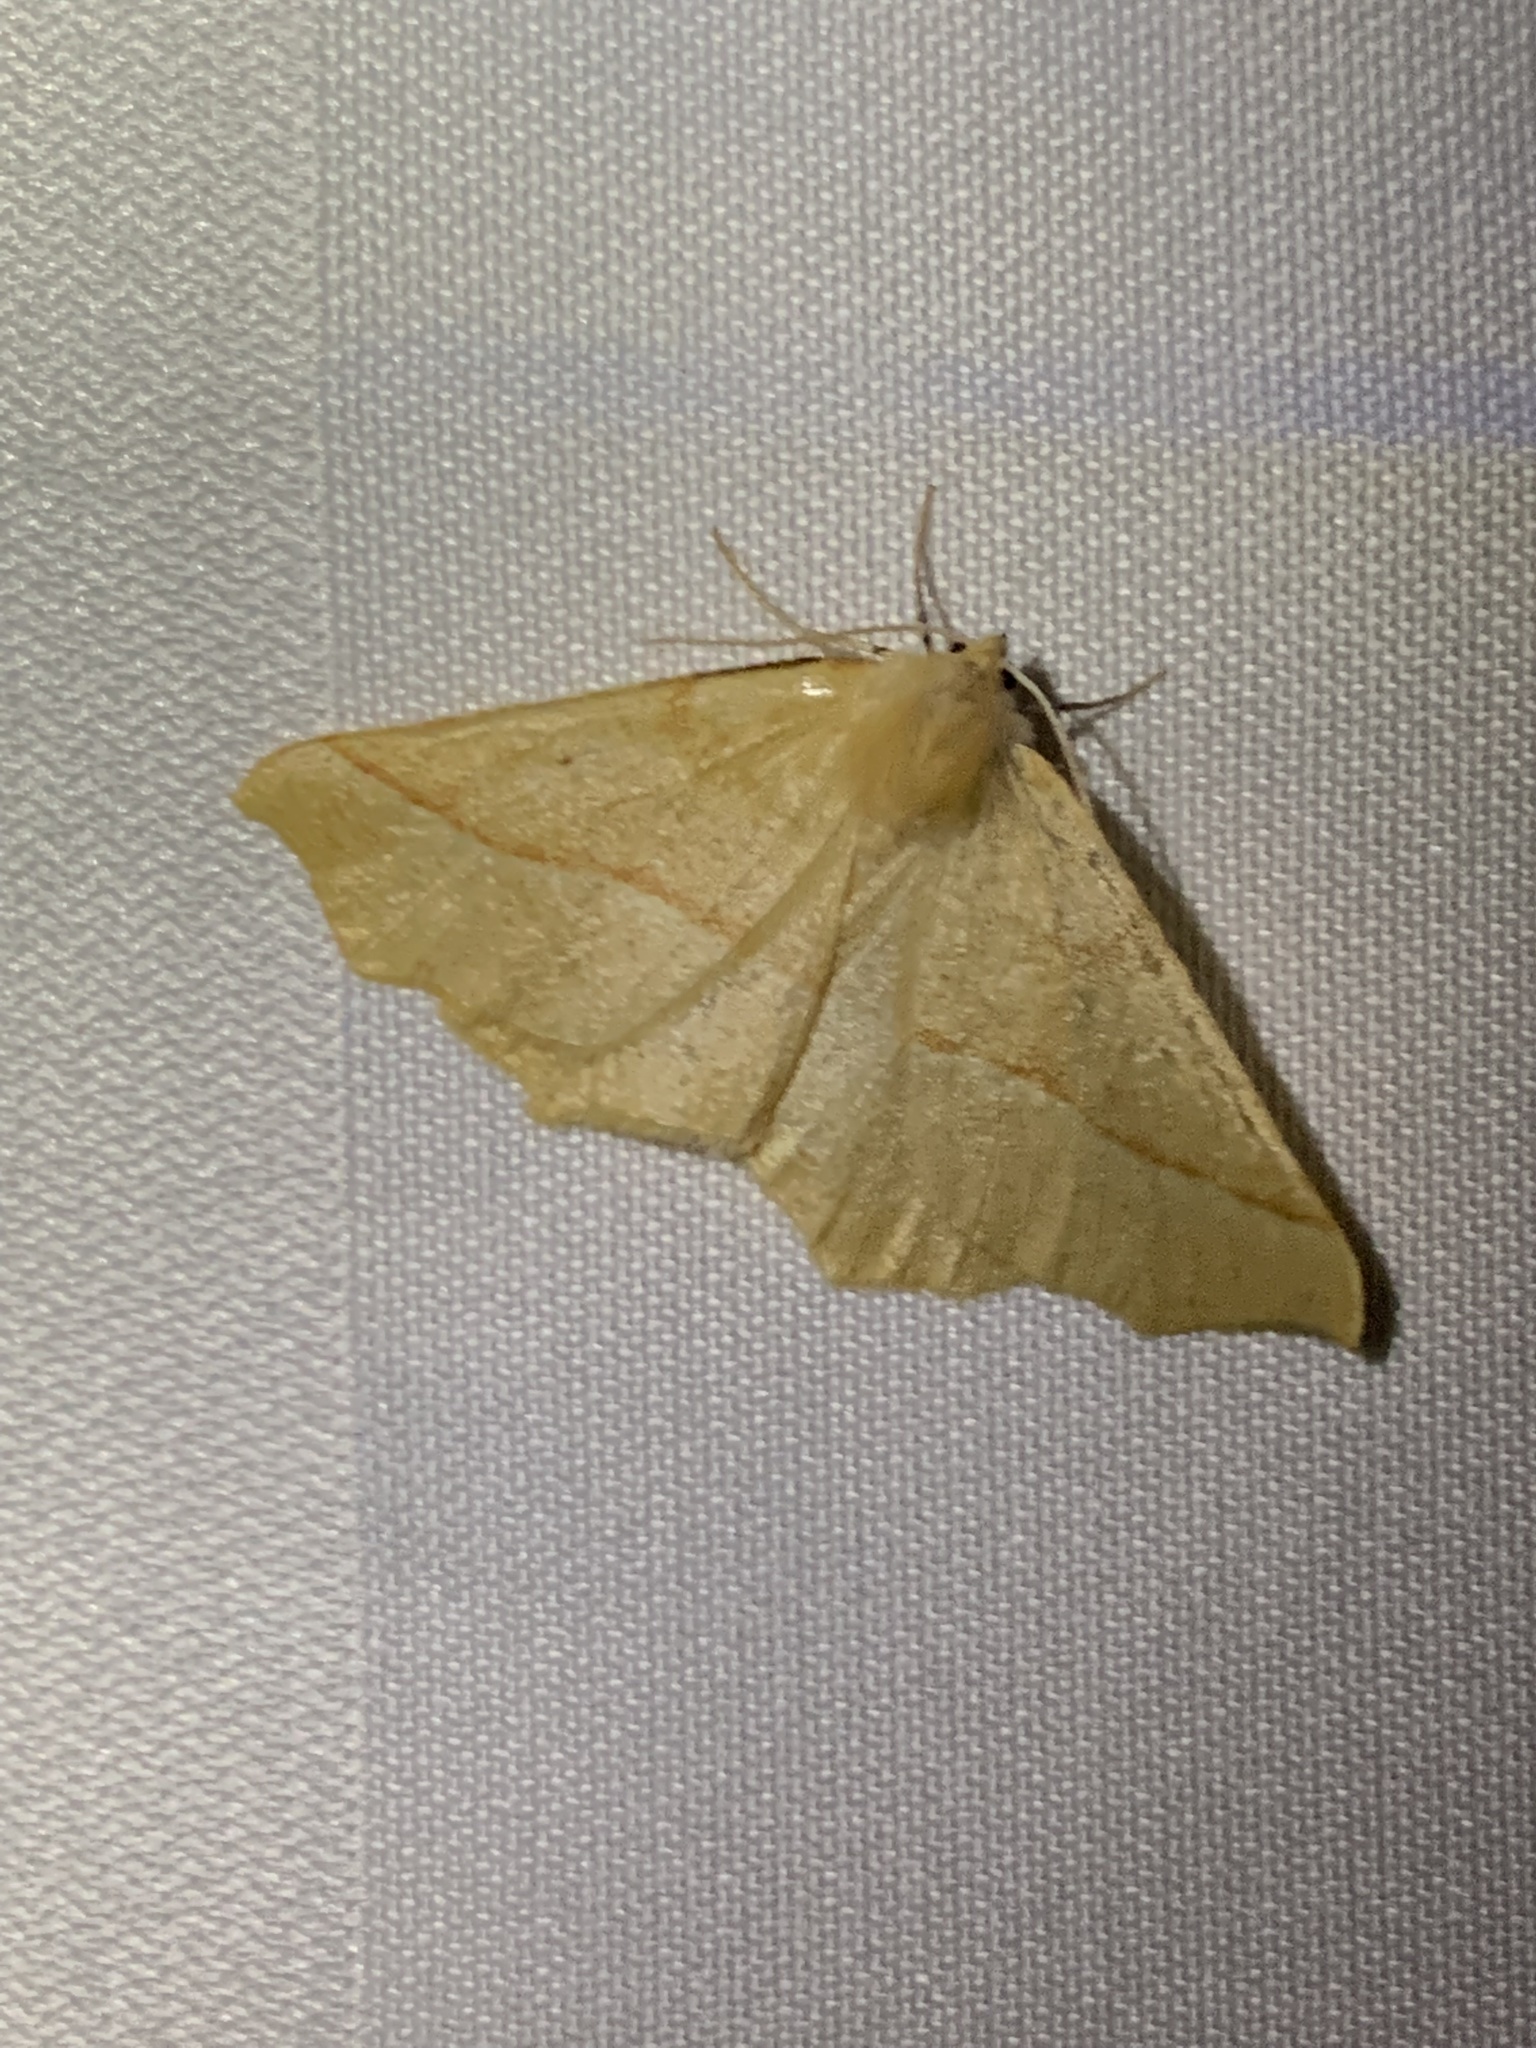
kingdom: Animalia
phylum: Arthropoda
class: Insecta
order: Lepidoptera
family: Geometridae
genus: Synaxis
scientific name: Synaxis jubararia
